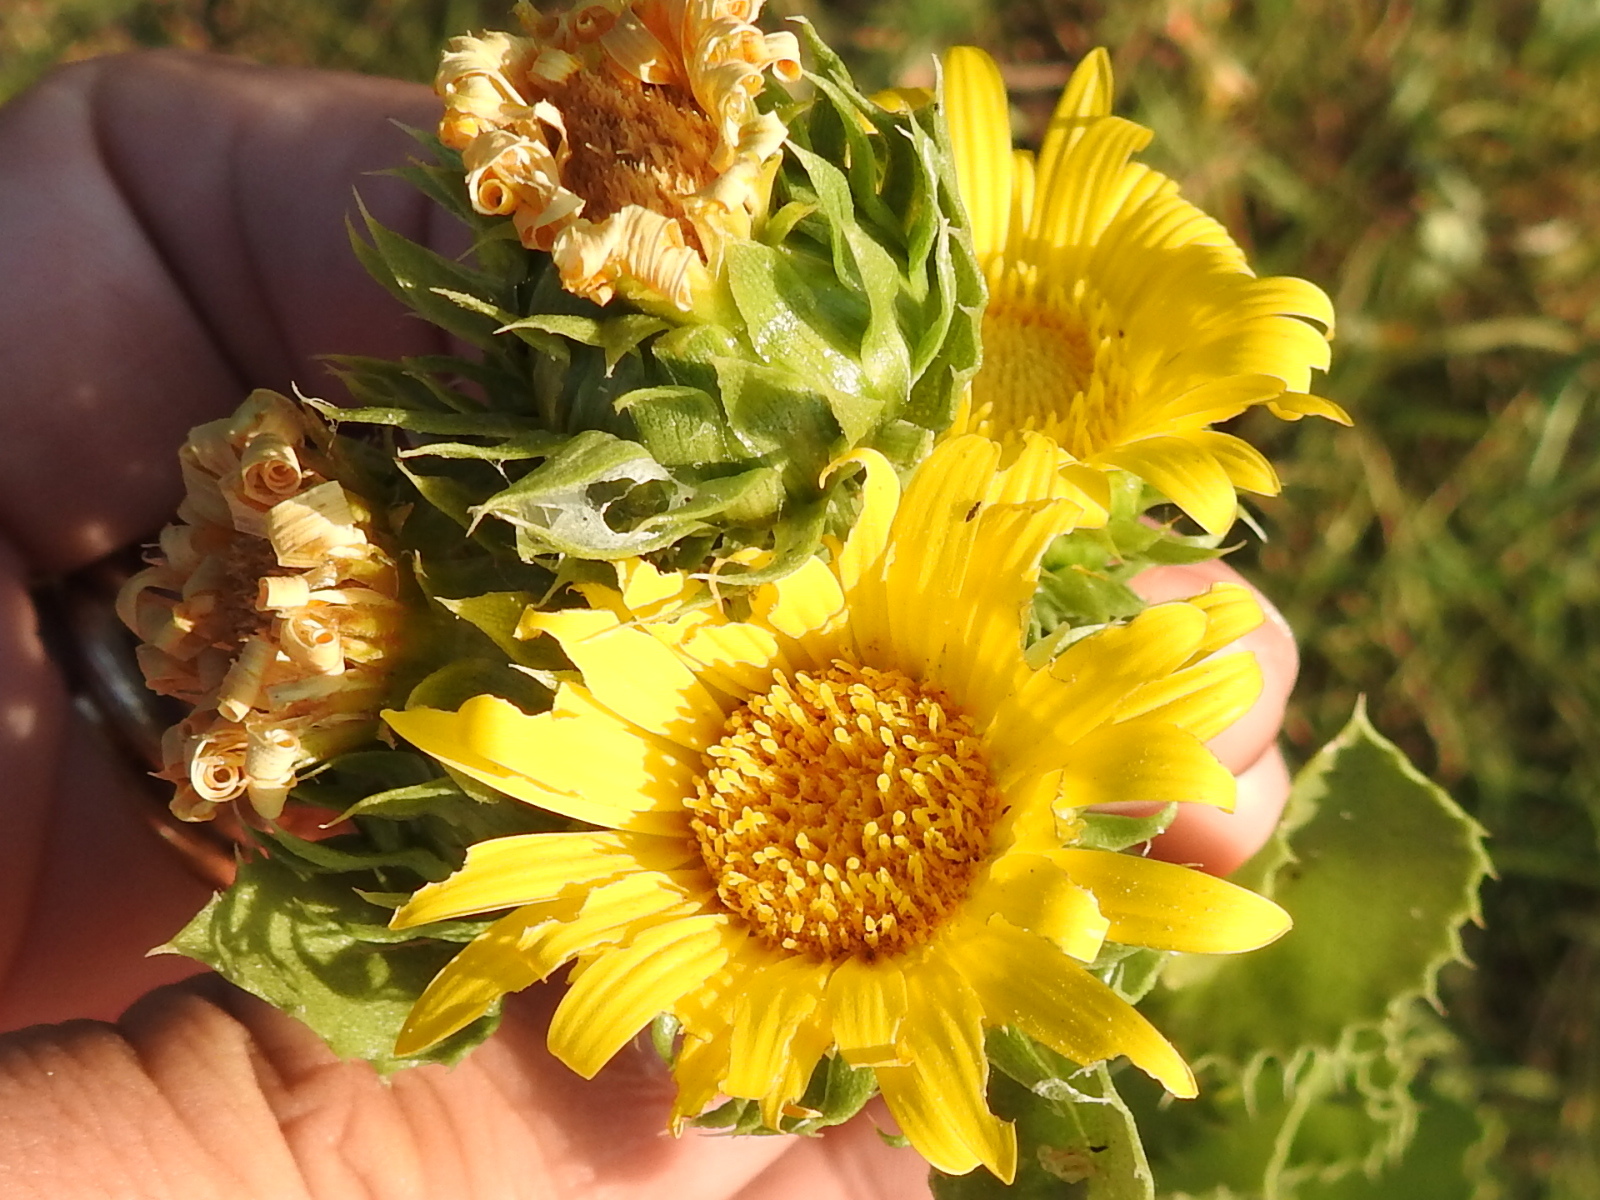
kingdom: Plantae
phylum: Tracheophyta
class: Magnoliopsida
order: Asterales
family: Asteraceae
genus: Grindelia
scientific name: Grindelia ciliata
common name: Goldenweed
